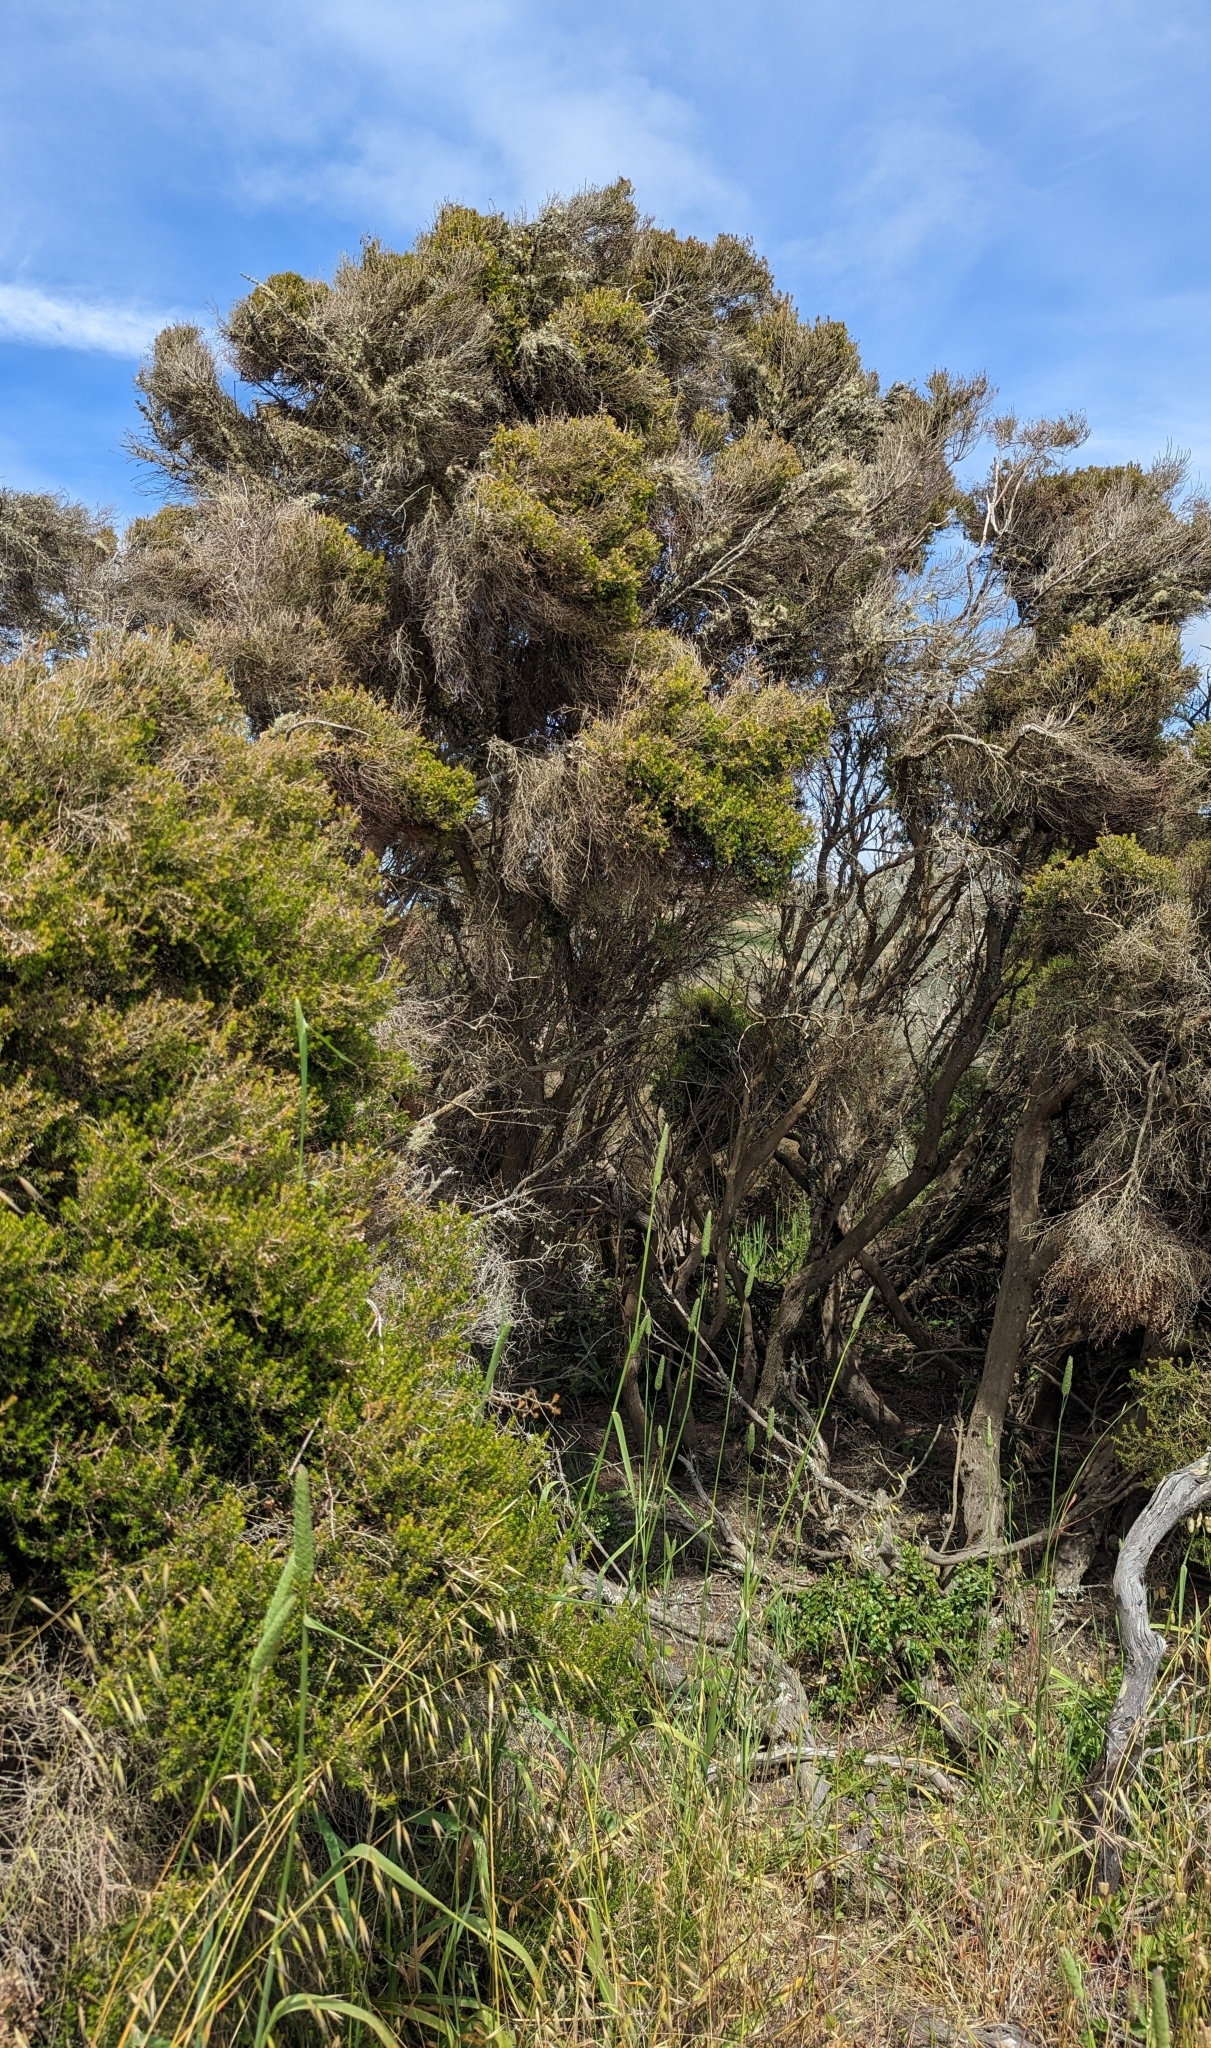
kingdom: Plantae
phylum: Tracheophyta
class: Magnoliopsida
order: Ericales
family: Ericaceae
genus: Erica
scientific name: Erica canaliculata
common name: Hairy grey heather
